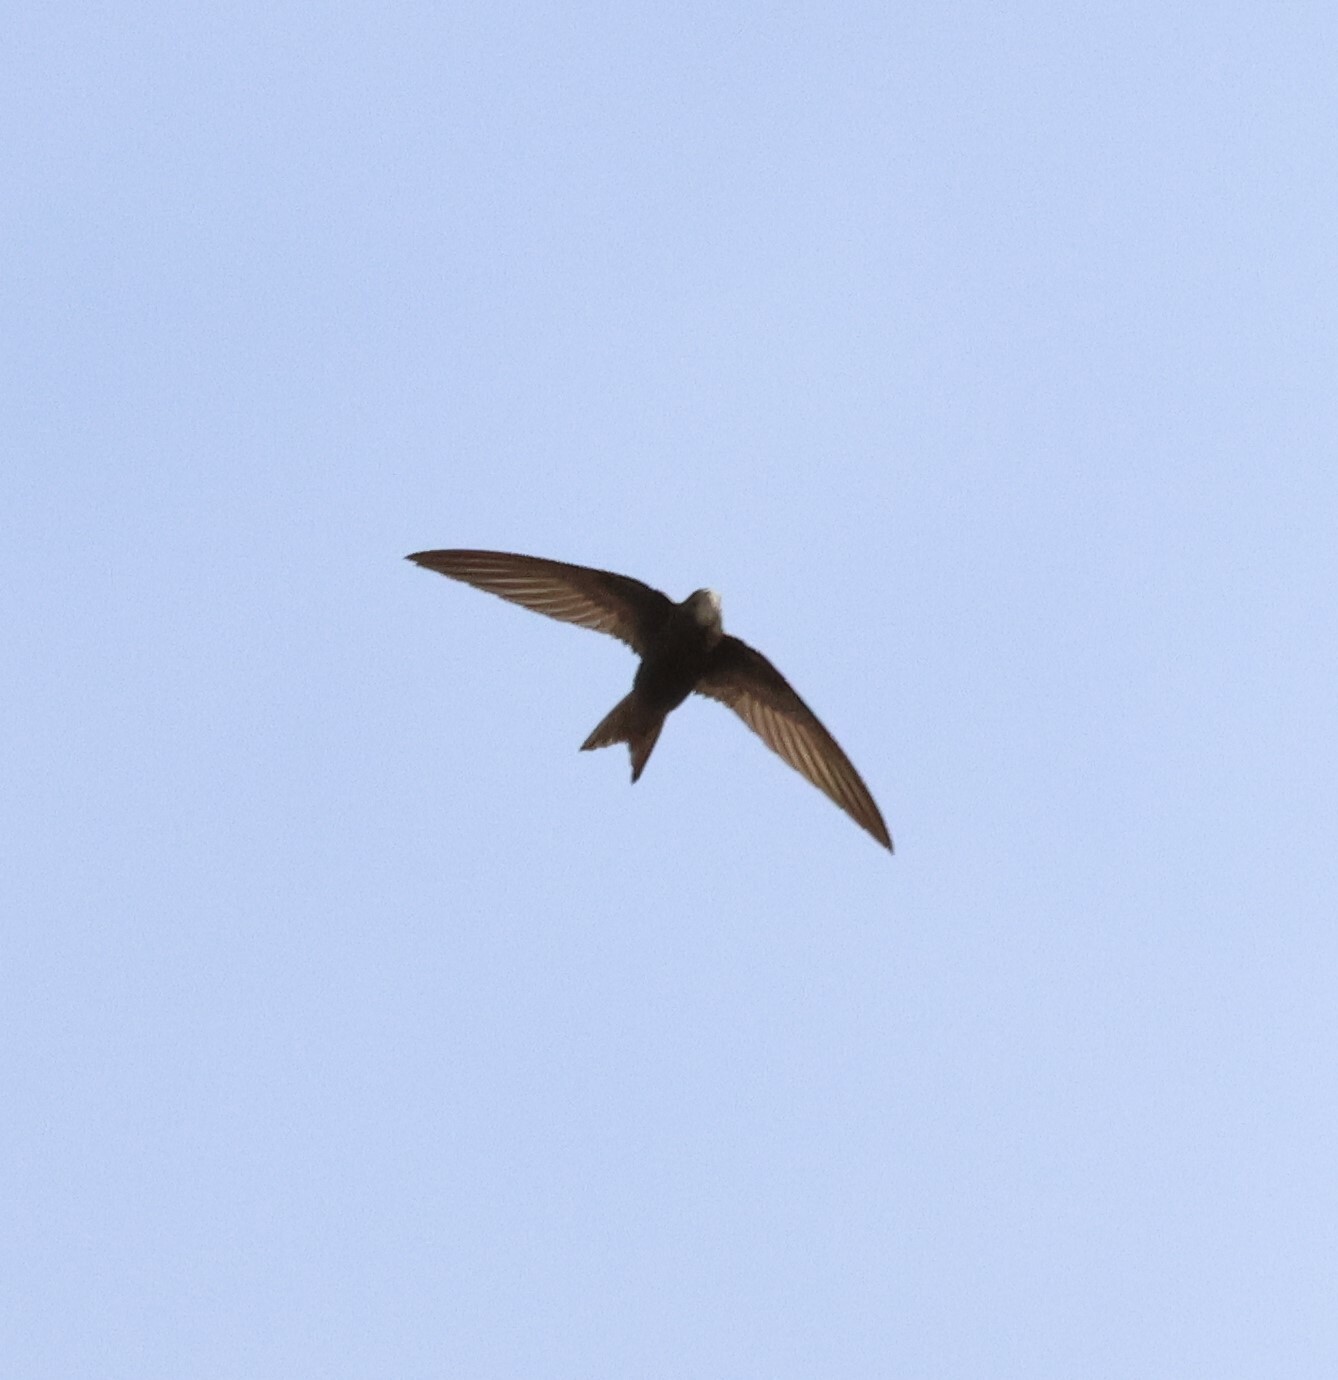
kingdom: Animalia
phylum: Chordata
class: Aves
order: Apodiformes
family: Apodidae
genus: Apus
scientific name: Apus apus
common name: Common swift
